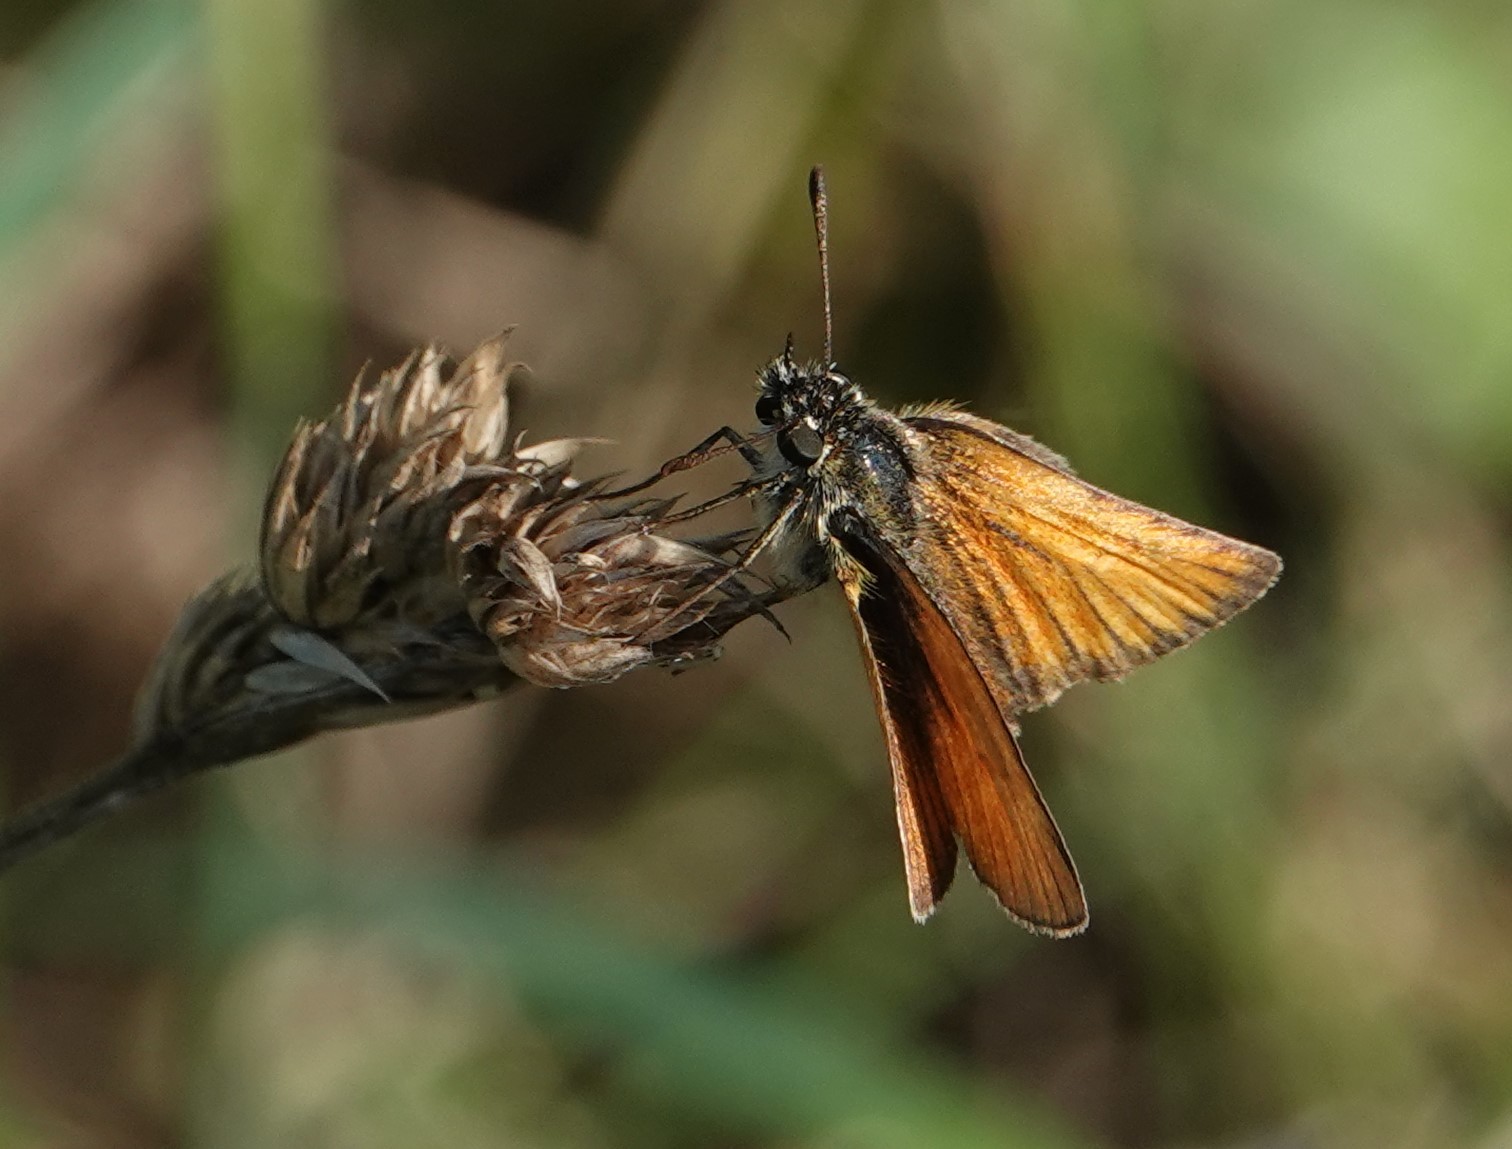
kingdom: Animalia
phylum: Arthropoda
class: Insecta
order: Lepidoptera
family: Hesperiidae
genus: Thymelicus
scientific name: Thymelicus lineola
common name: Essex skipper
